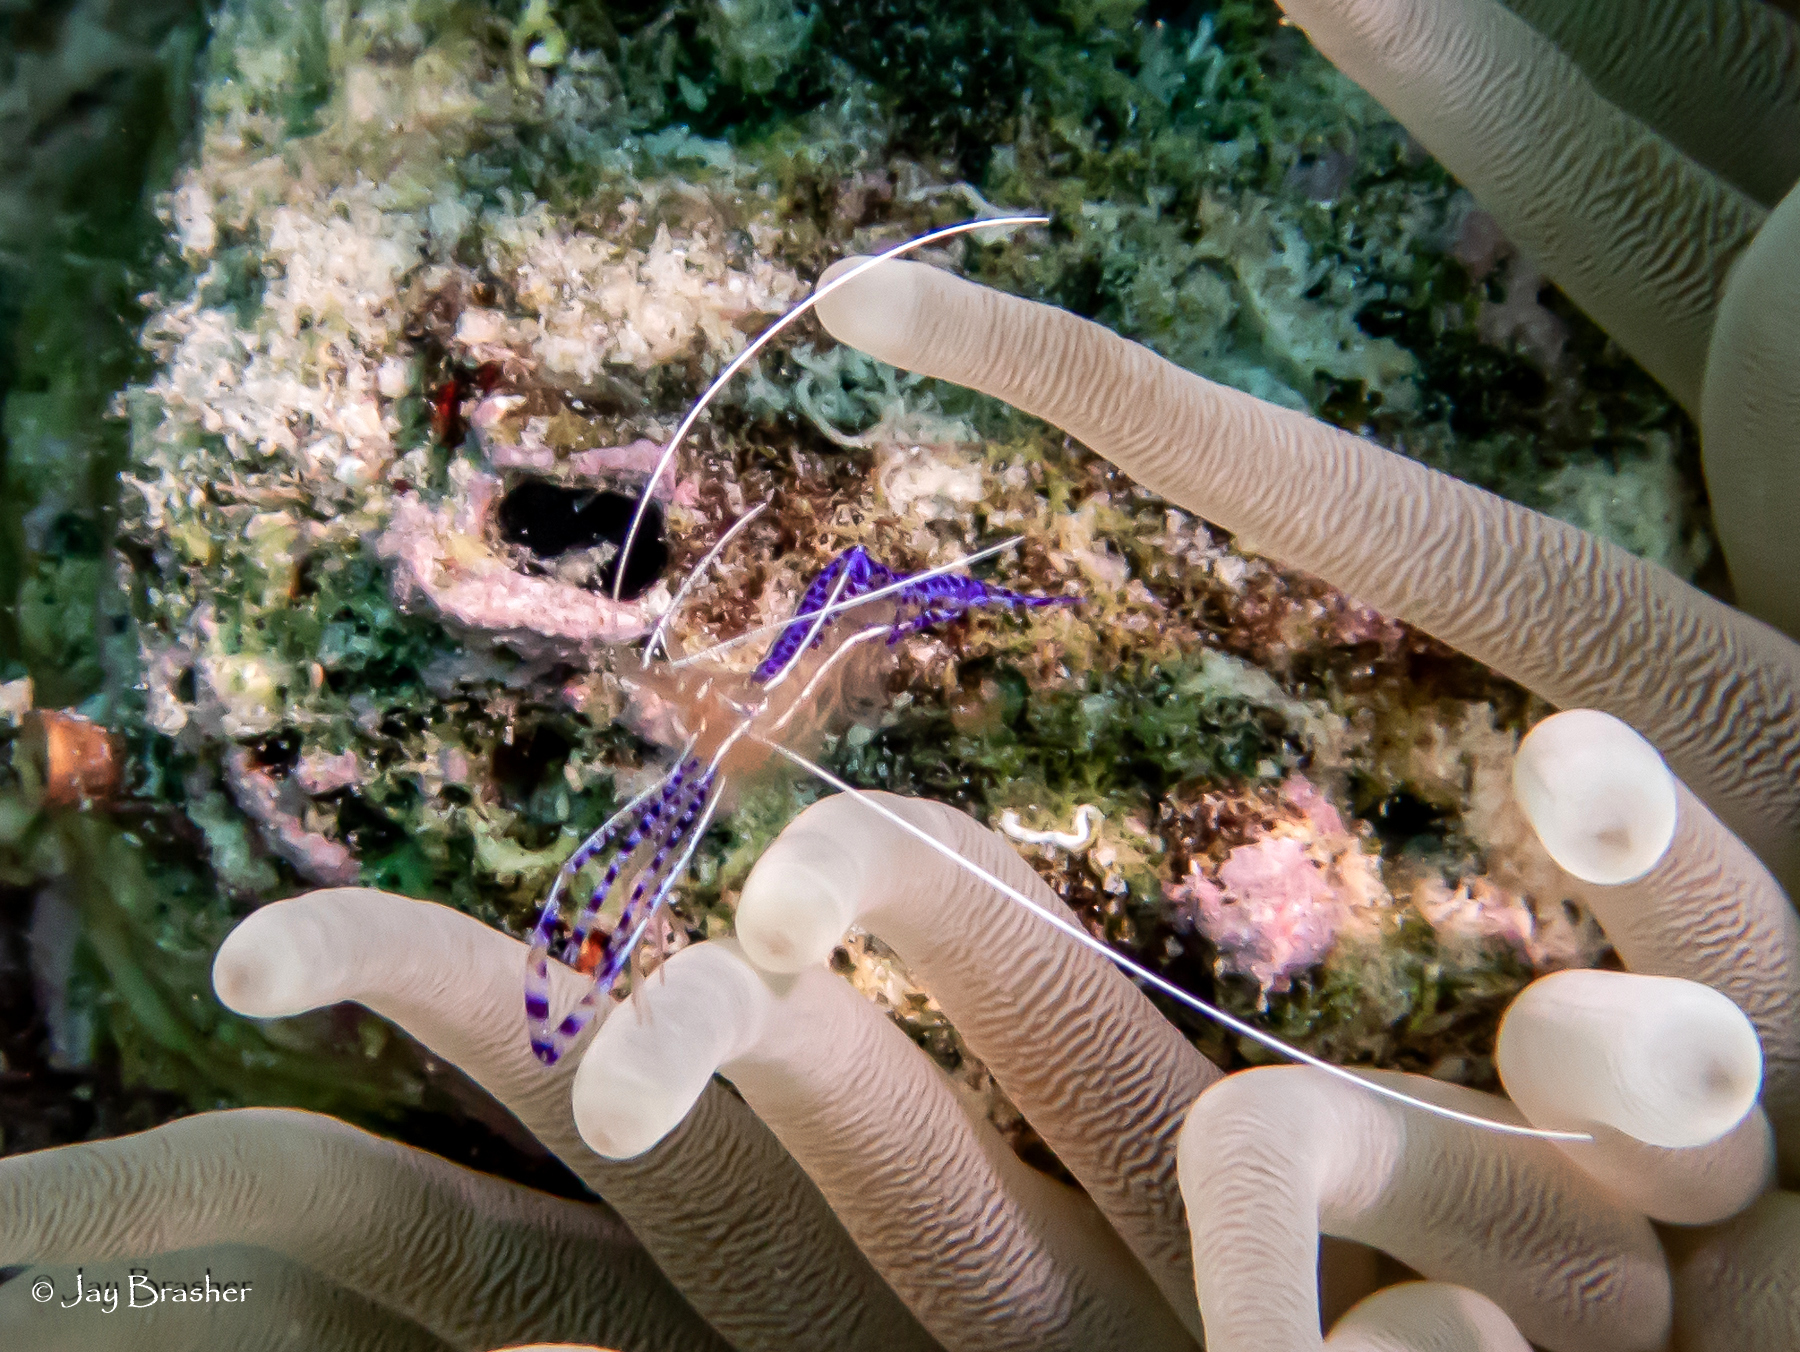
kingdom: Animalia
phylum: Arthropoda
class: Malacostraca
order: Decapoda
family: Palaemonidae
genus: Ancylomenes
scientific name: Ancylomenes pedersoni
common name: Pederson's cleaning shrimp
